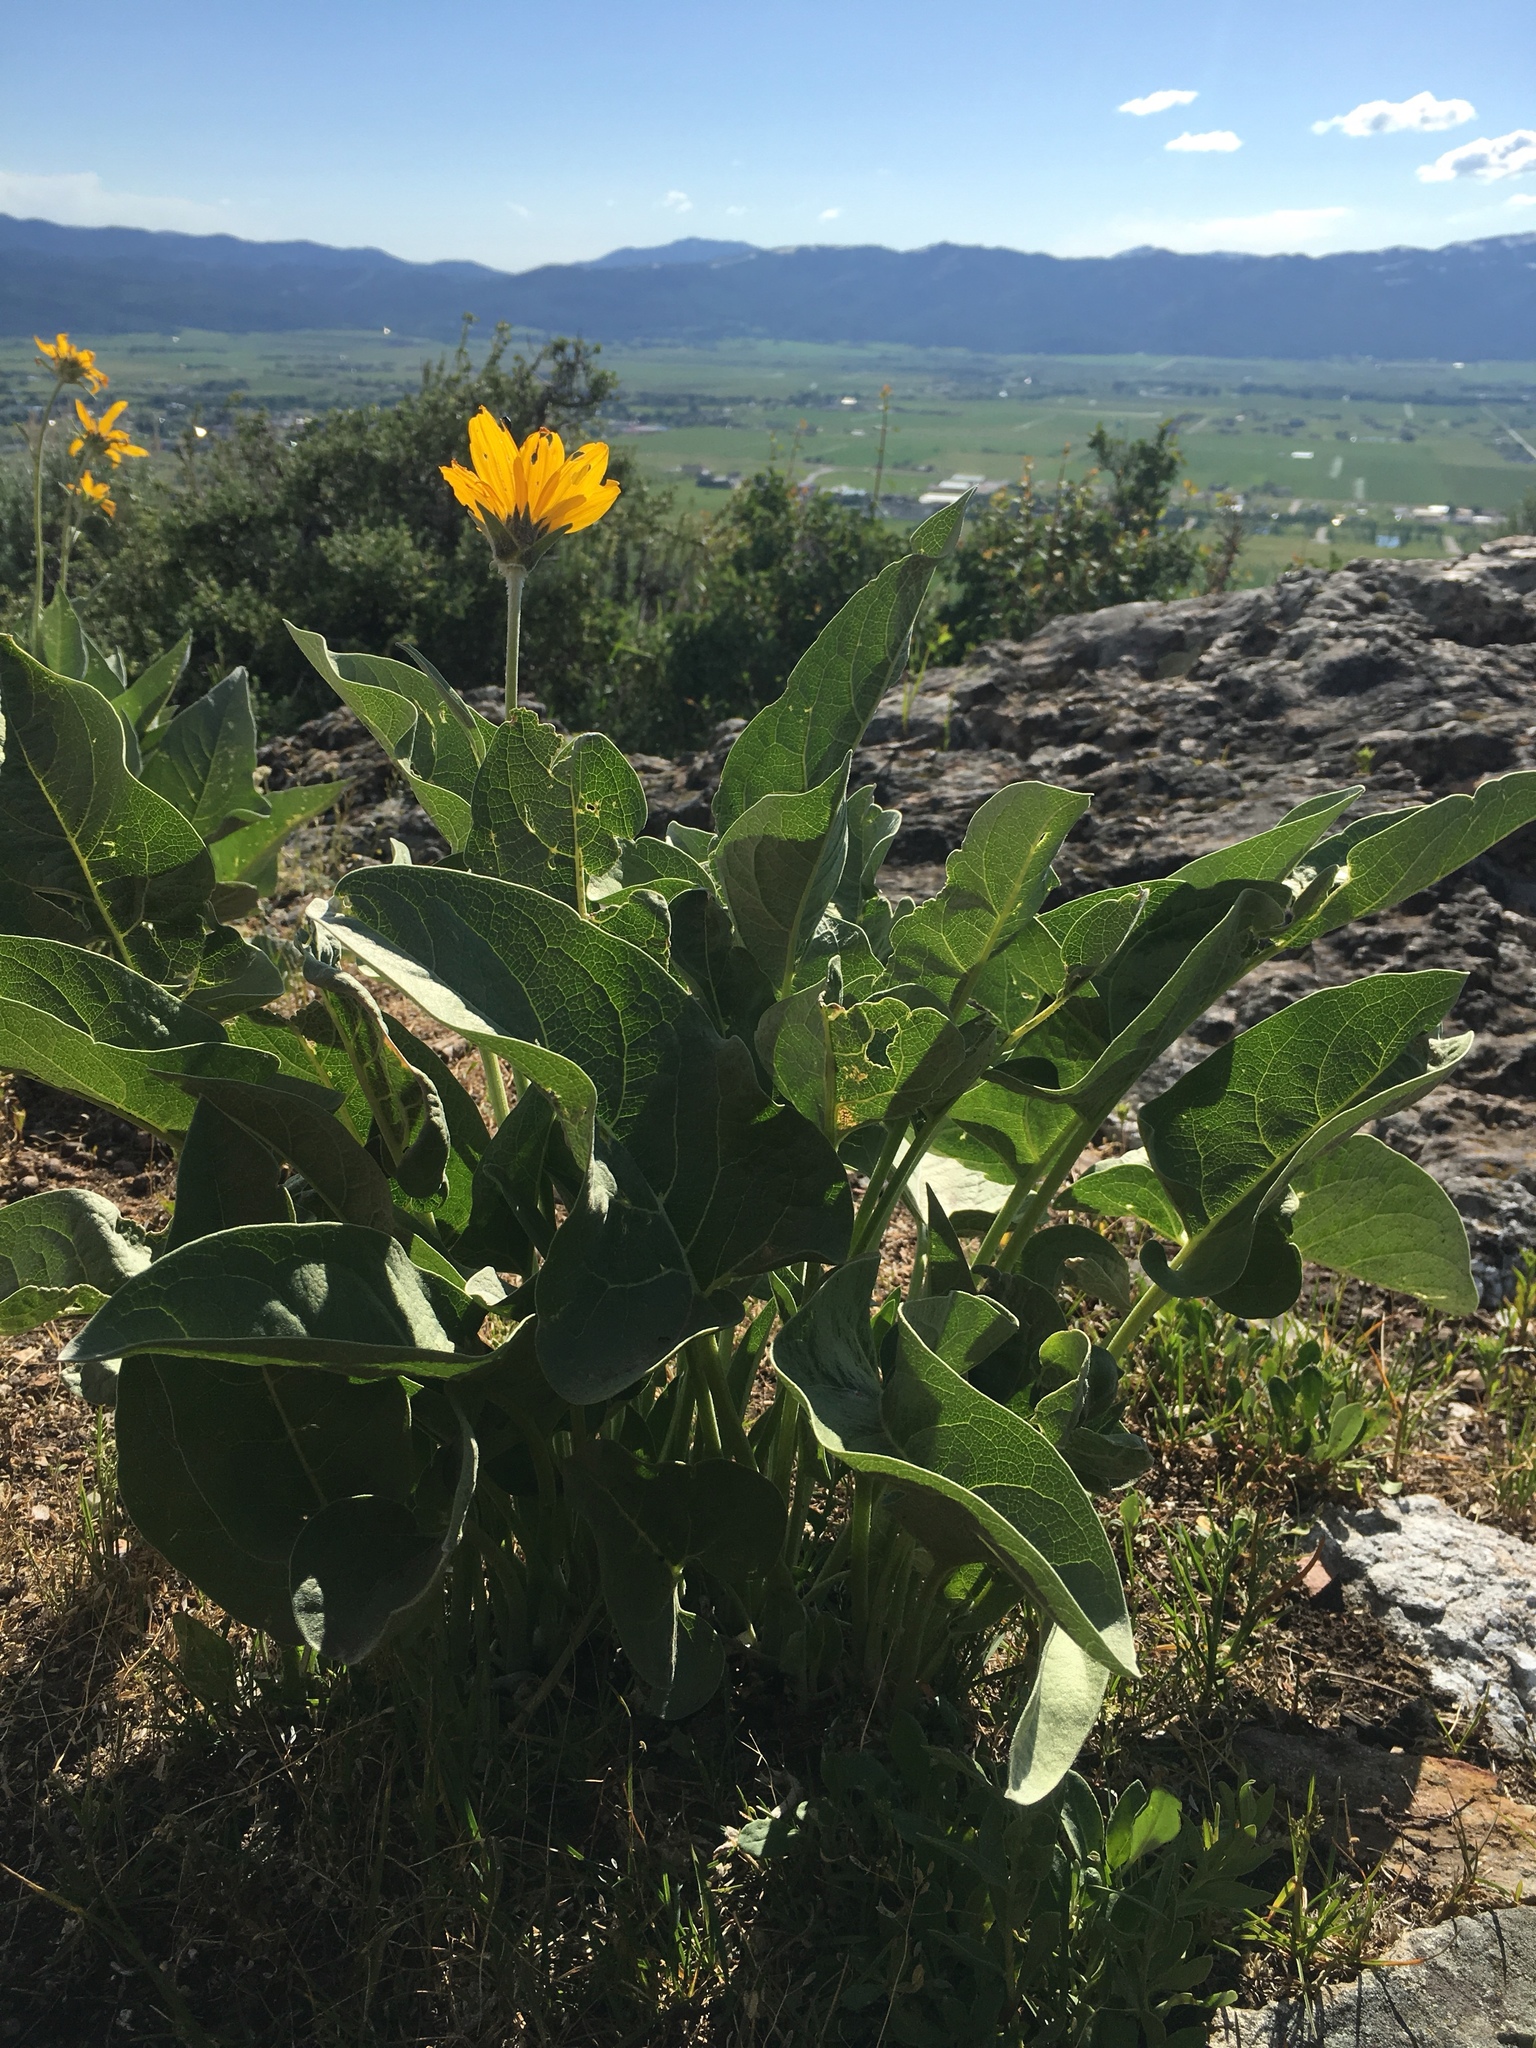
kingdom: Plantae
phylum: Tracheophyta
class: Magnoliopsida
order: Asterales
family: Asteraceae
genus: Wyethia
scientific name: Wyethia sagittata
